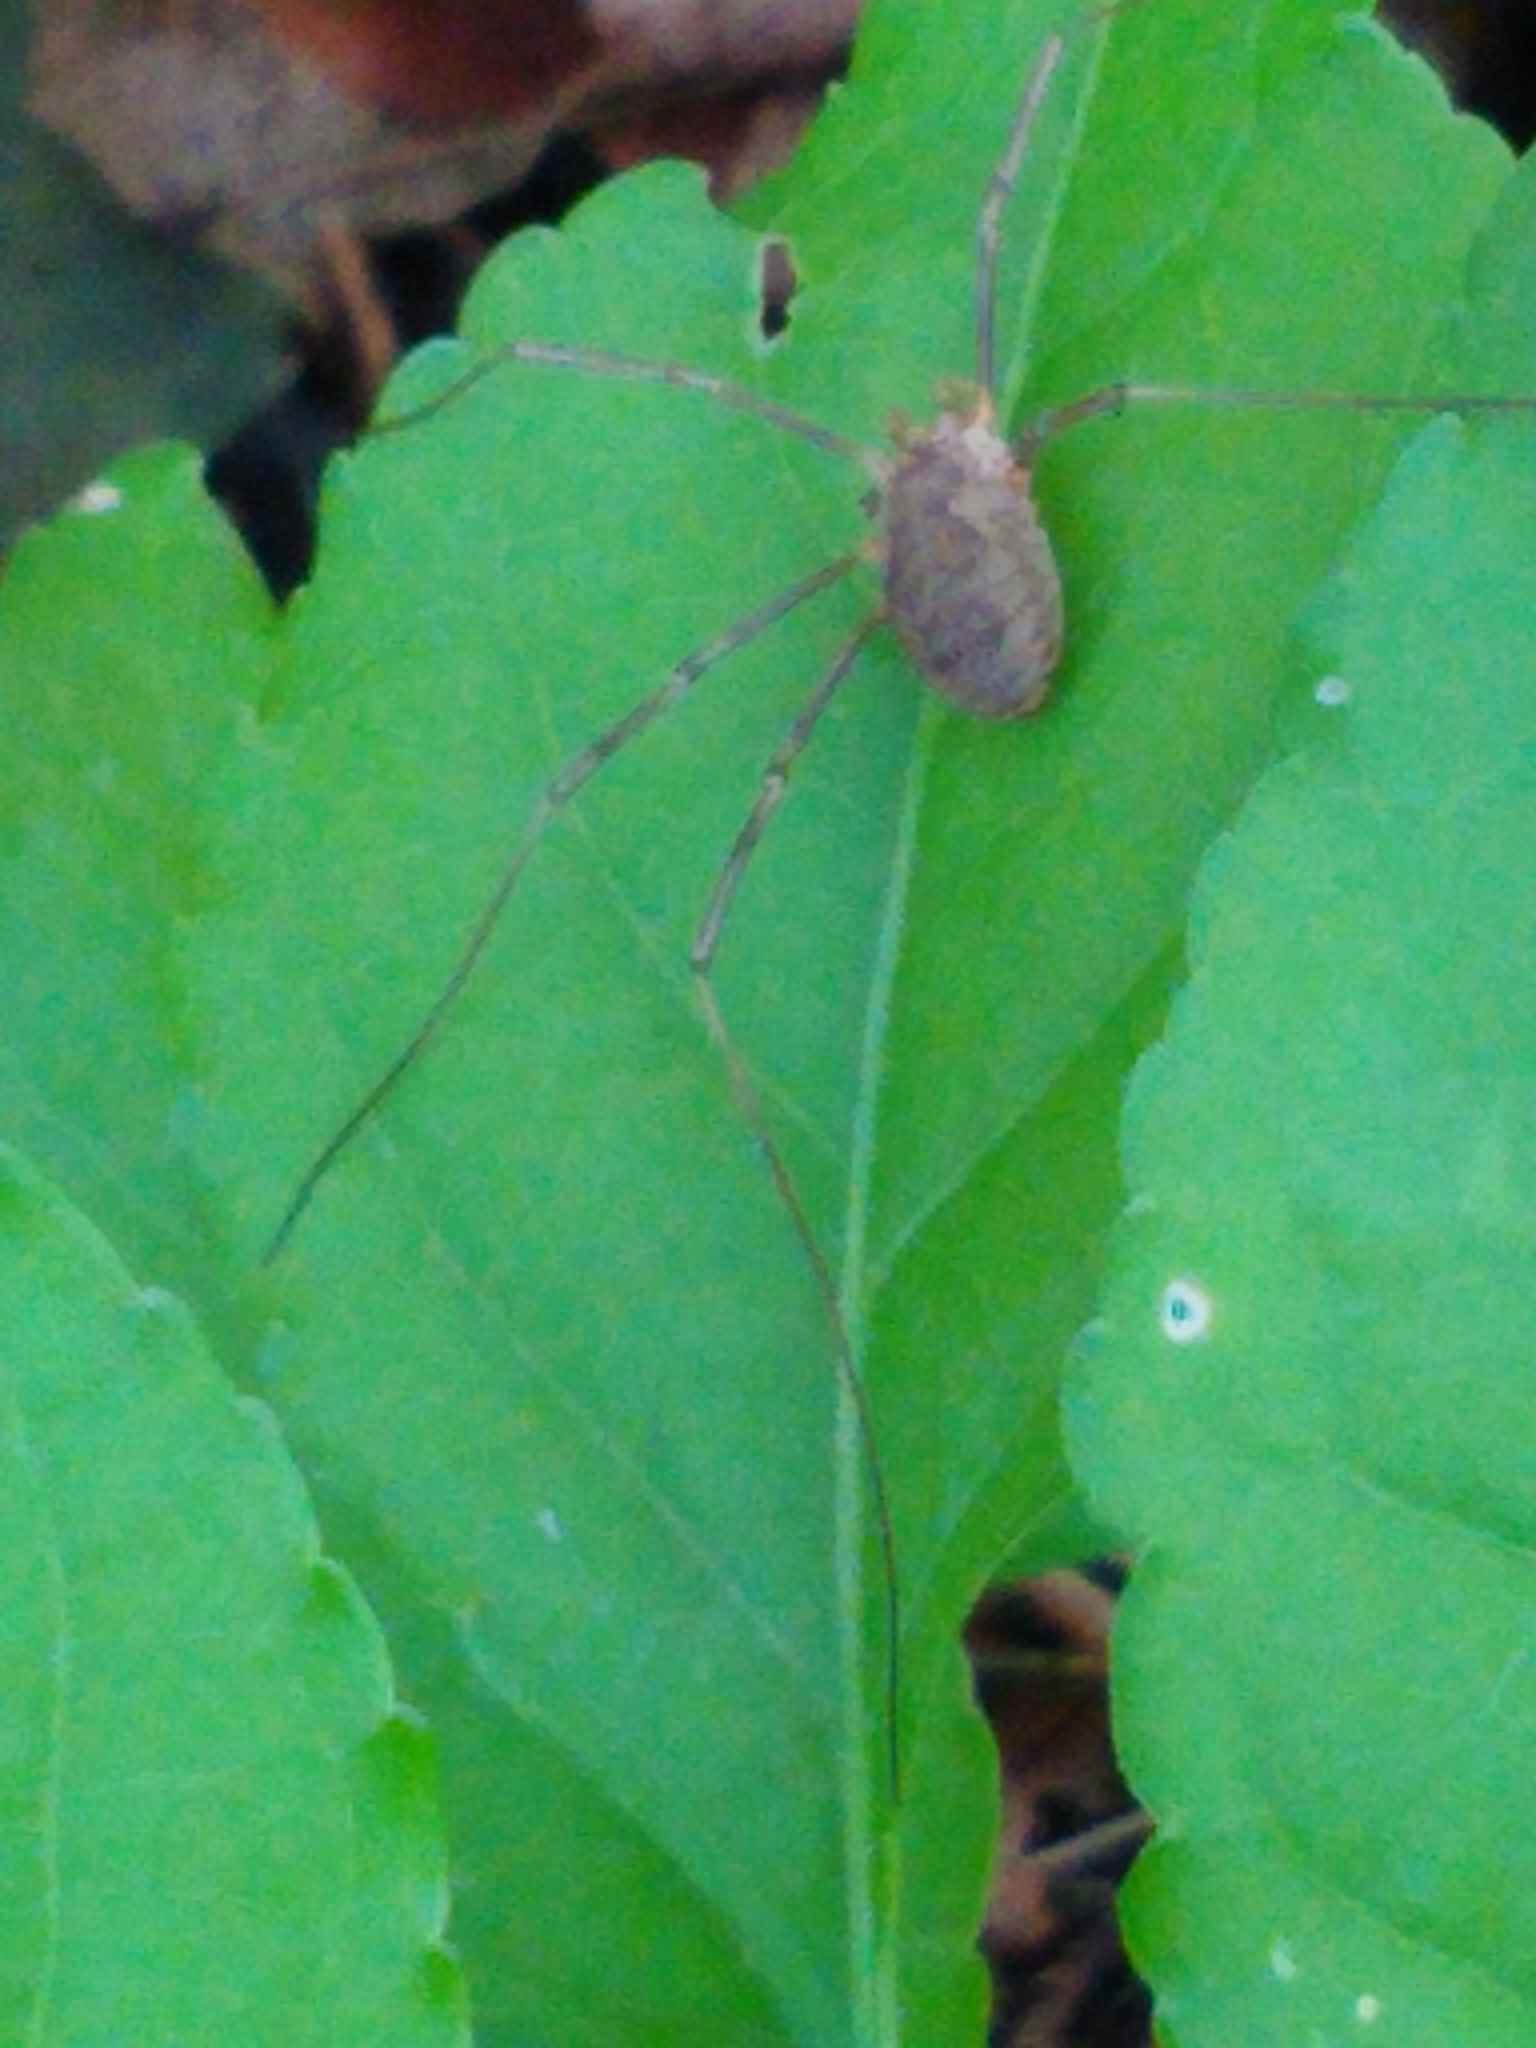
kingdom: Animalia
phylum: Arthropoda
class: Arachnida
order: Opiliones
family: Phalangiidae
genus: Phalangium
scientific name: Phalangium opilio
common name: Daddy longleg
